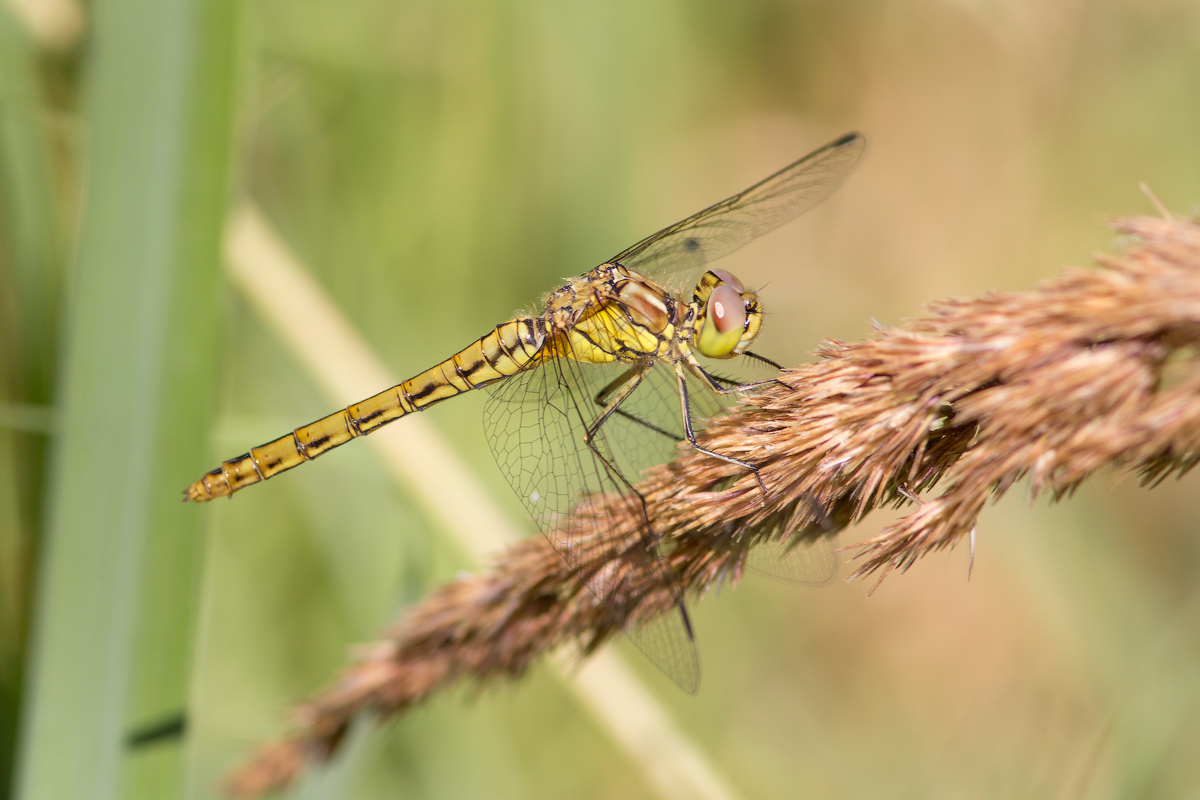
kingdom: Animalia
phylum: Arthropoda
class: Insecta
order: Odonata
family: Libellulidae
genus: Sympetrum
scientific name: Sympetrum vulgatum
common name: Vagrant darter
